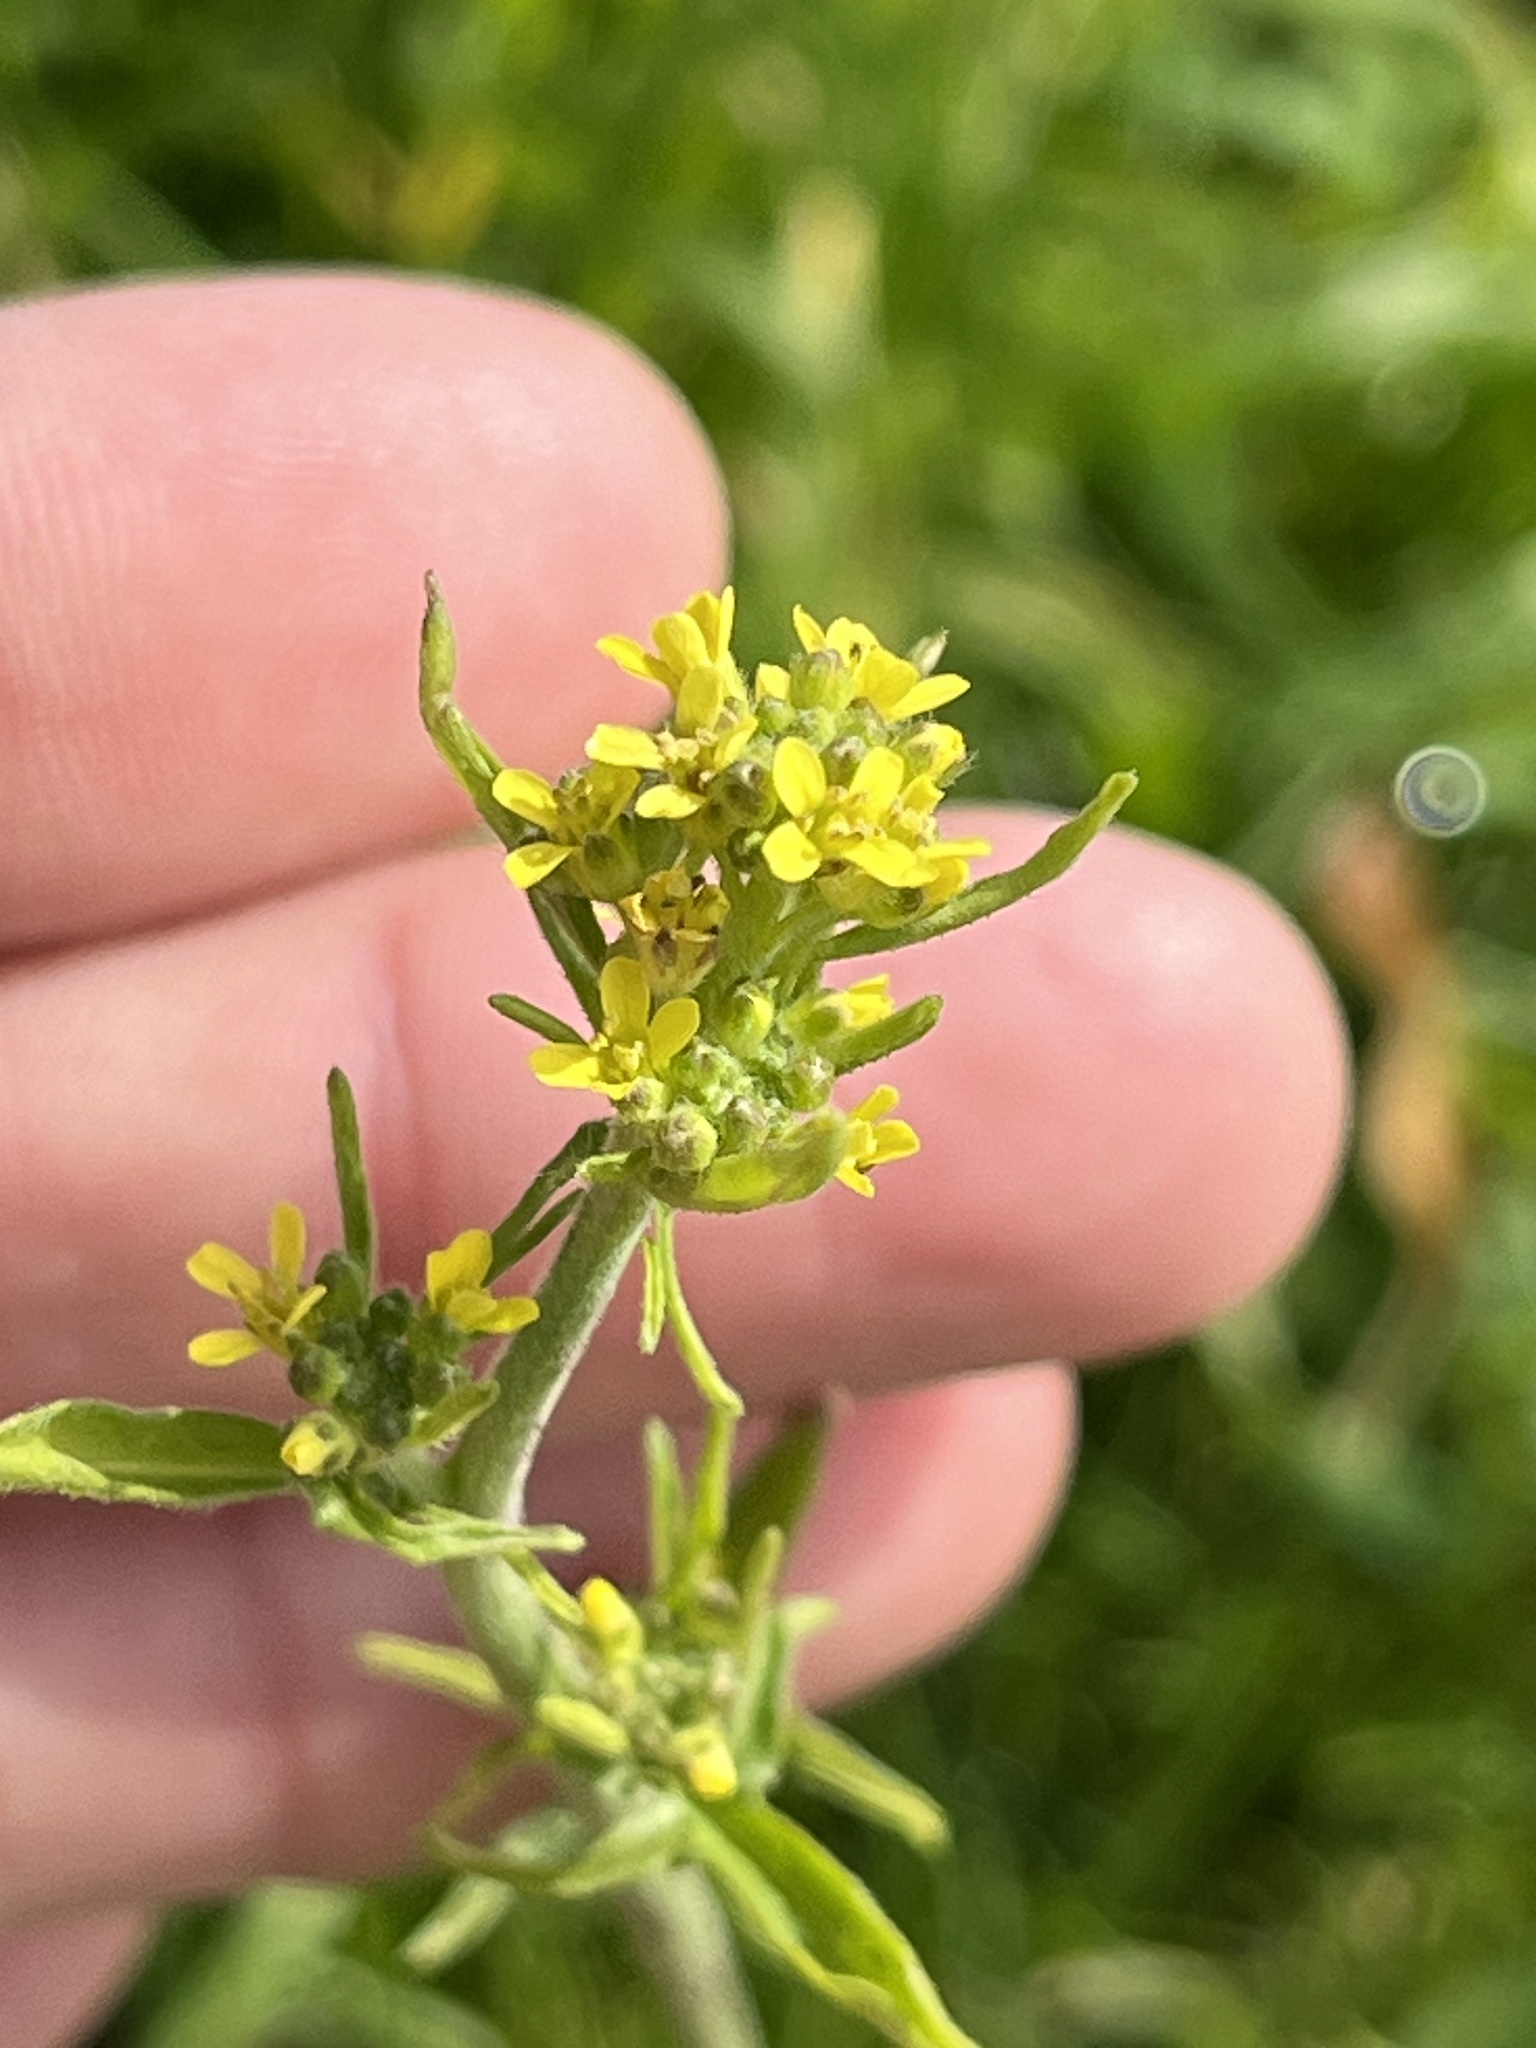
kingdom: Plantae
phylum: Tracheophyta
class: Magnoliopsida
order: Brassicales
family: Brassicaceae
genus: Sisymbrium
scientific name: Sisymbrium officinale
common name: Hedge mustard
